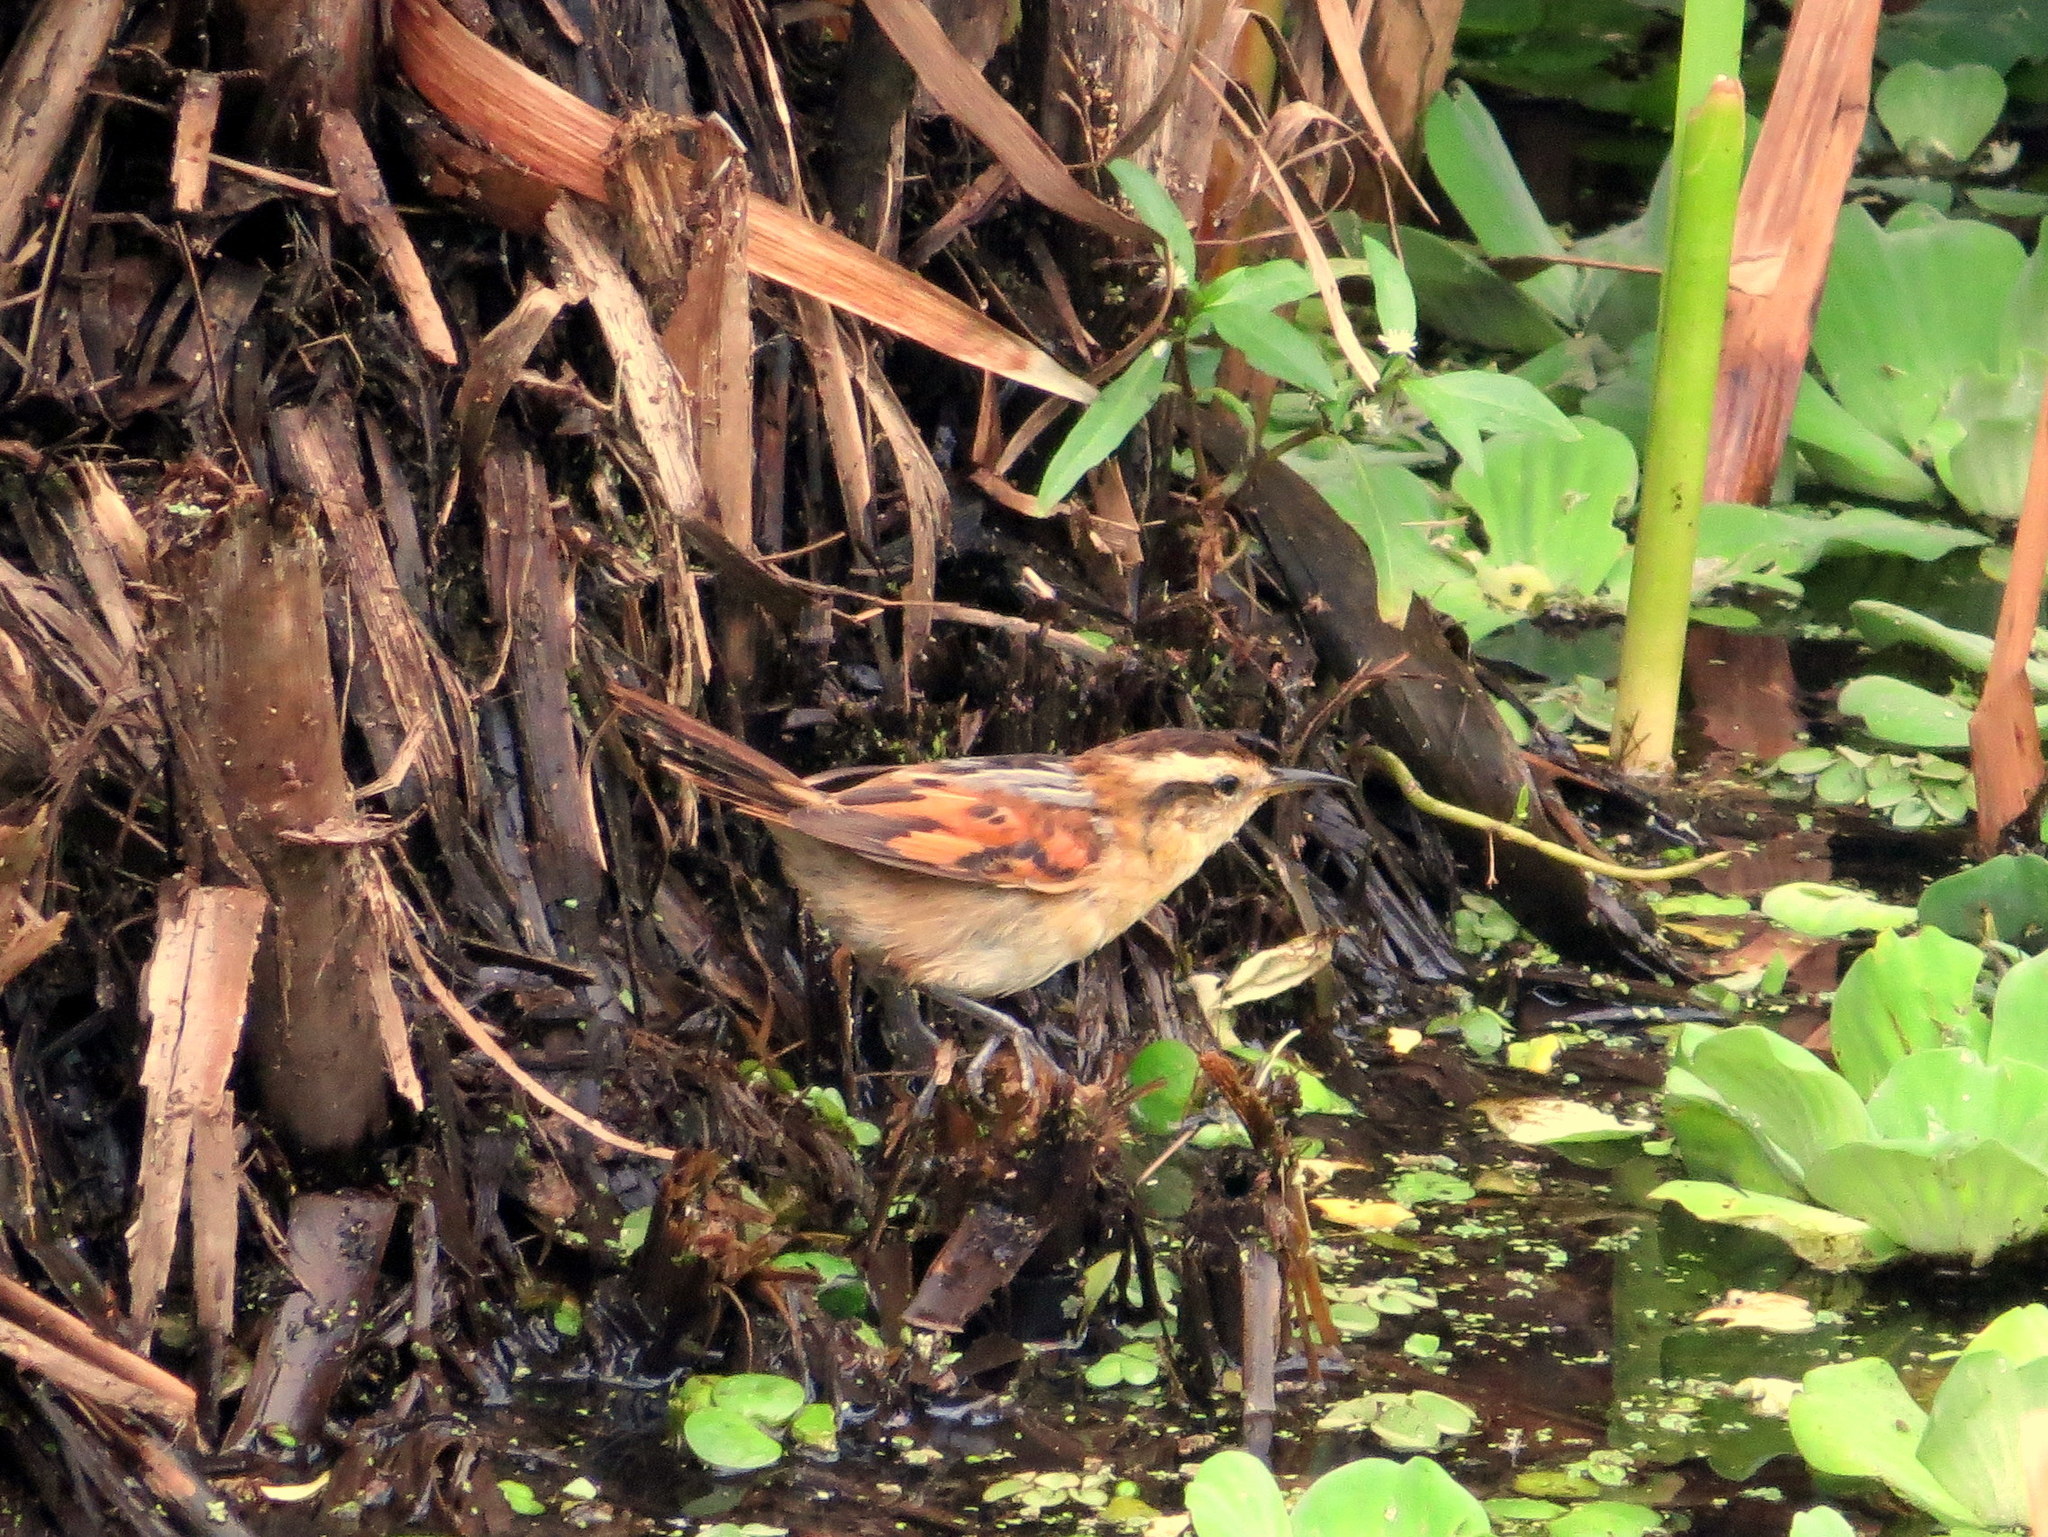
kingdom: Animalia
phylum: Chordata
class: Aves
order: Passeriformes
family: Furnariidae
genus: Phleocryptes
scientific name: Phleocryptes melanops
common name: Wren-like rushbird
